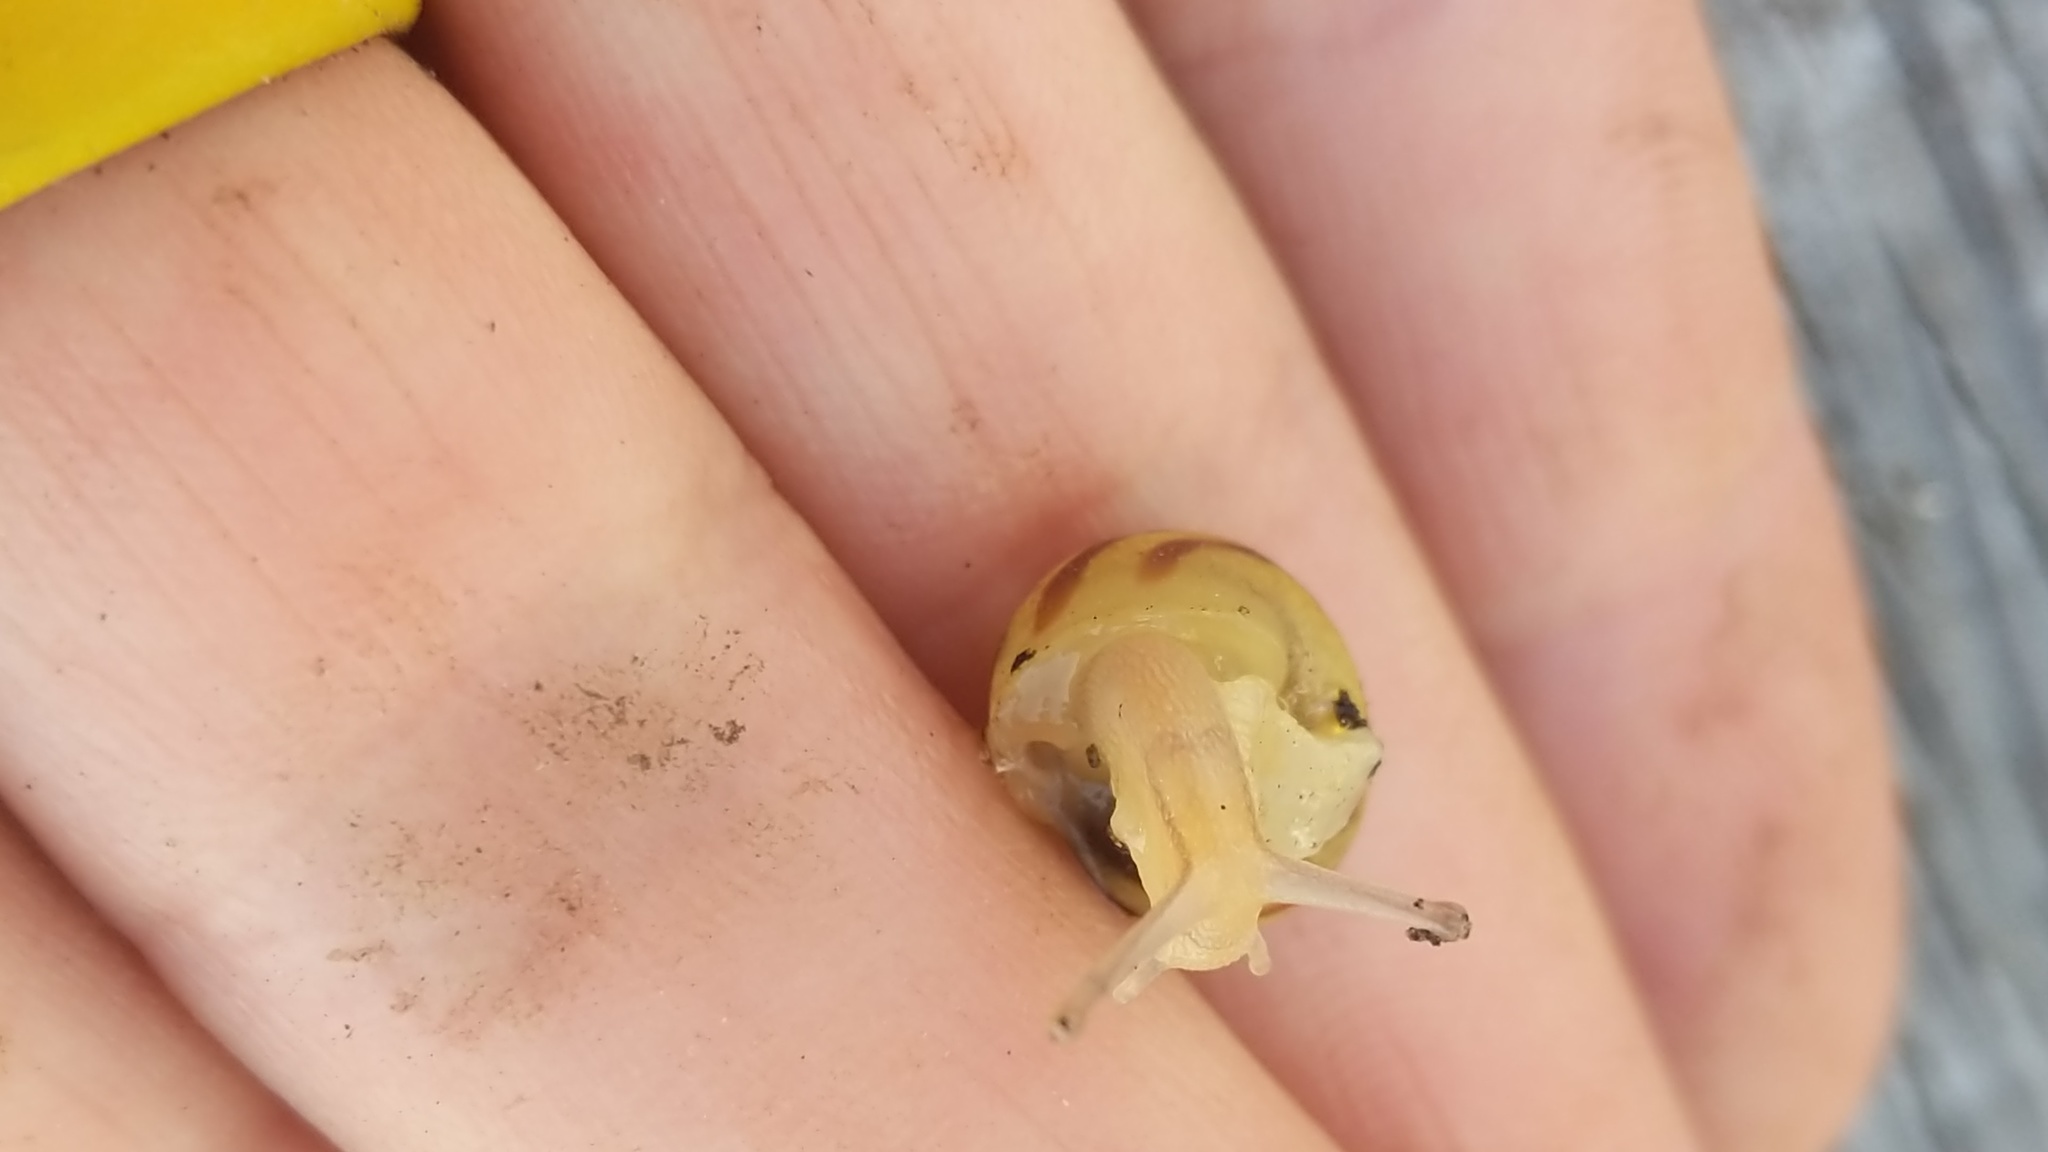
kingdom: Animalia
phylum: Mollusca
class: Gastropoda
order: Stylommatophora
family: Helicidae
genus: Cepaea
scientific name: Cepaea nemoralis
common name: Grovesnail
